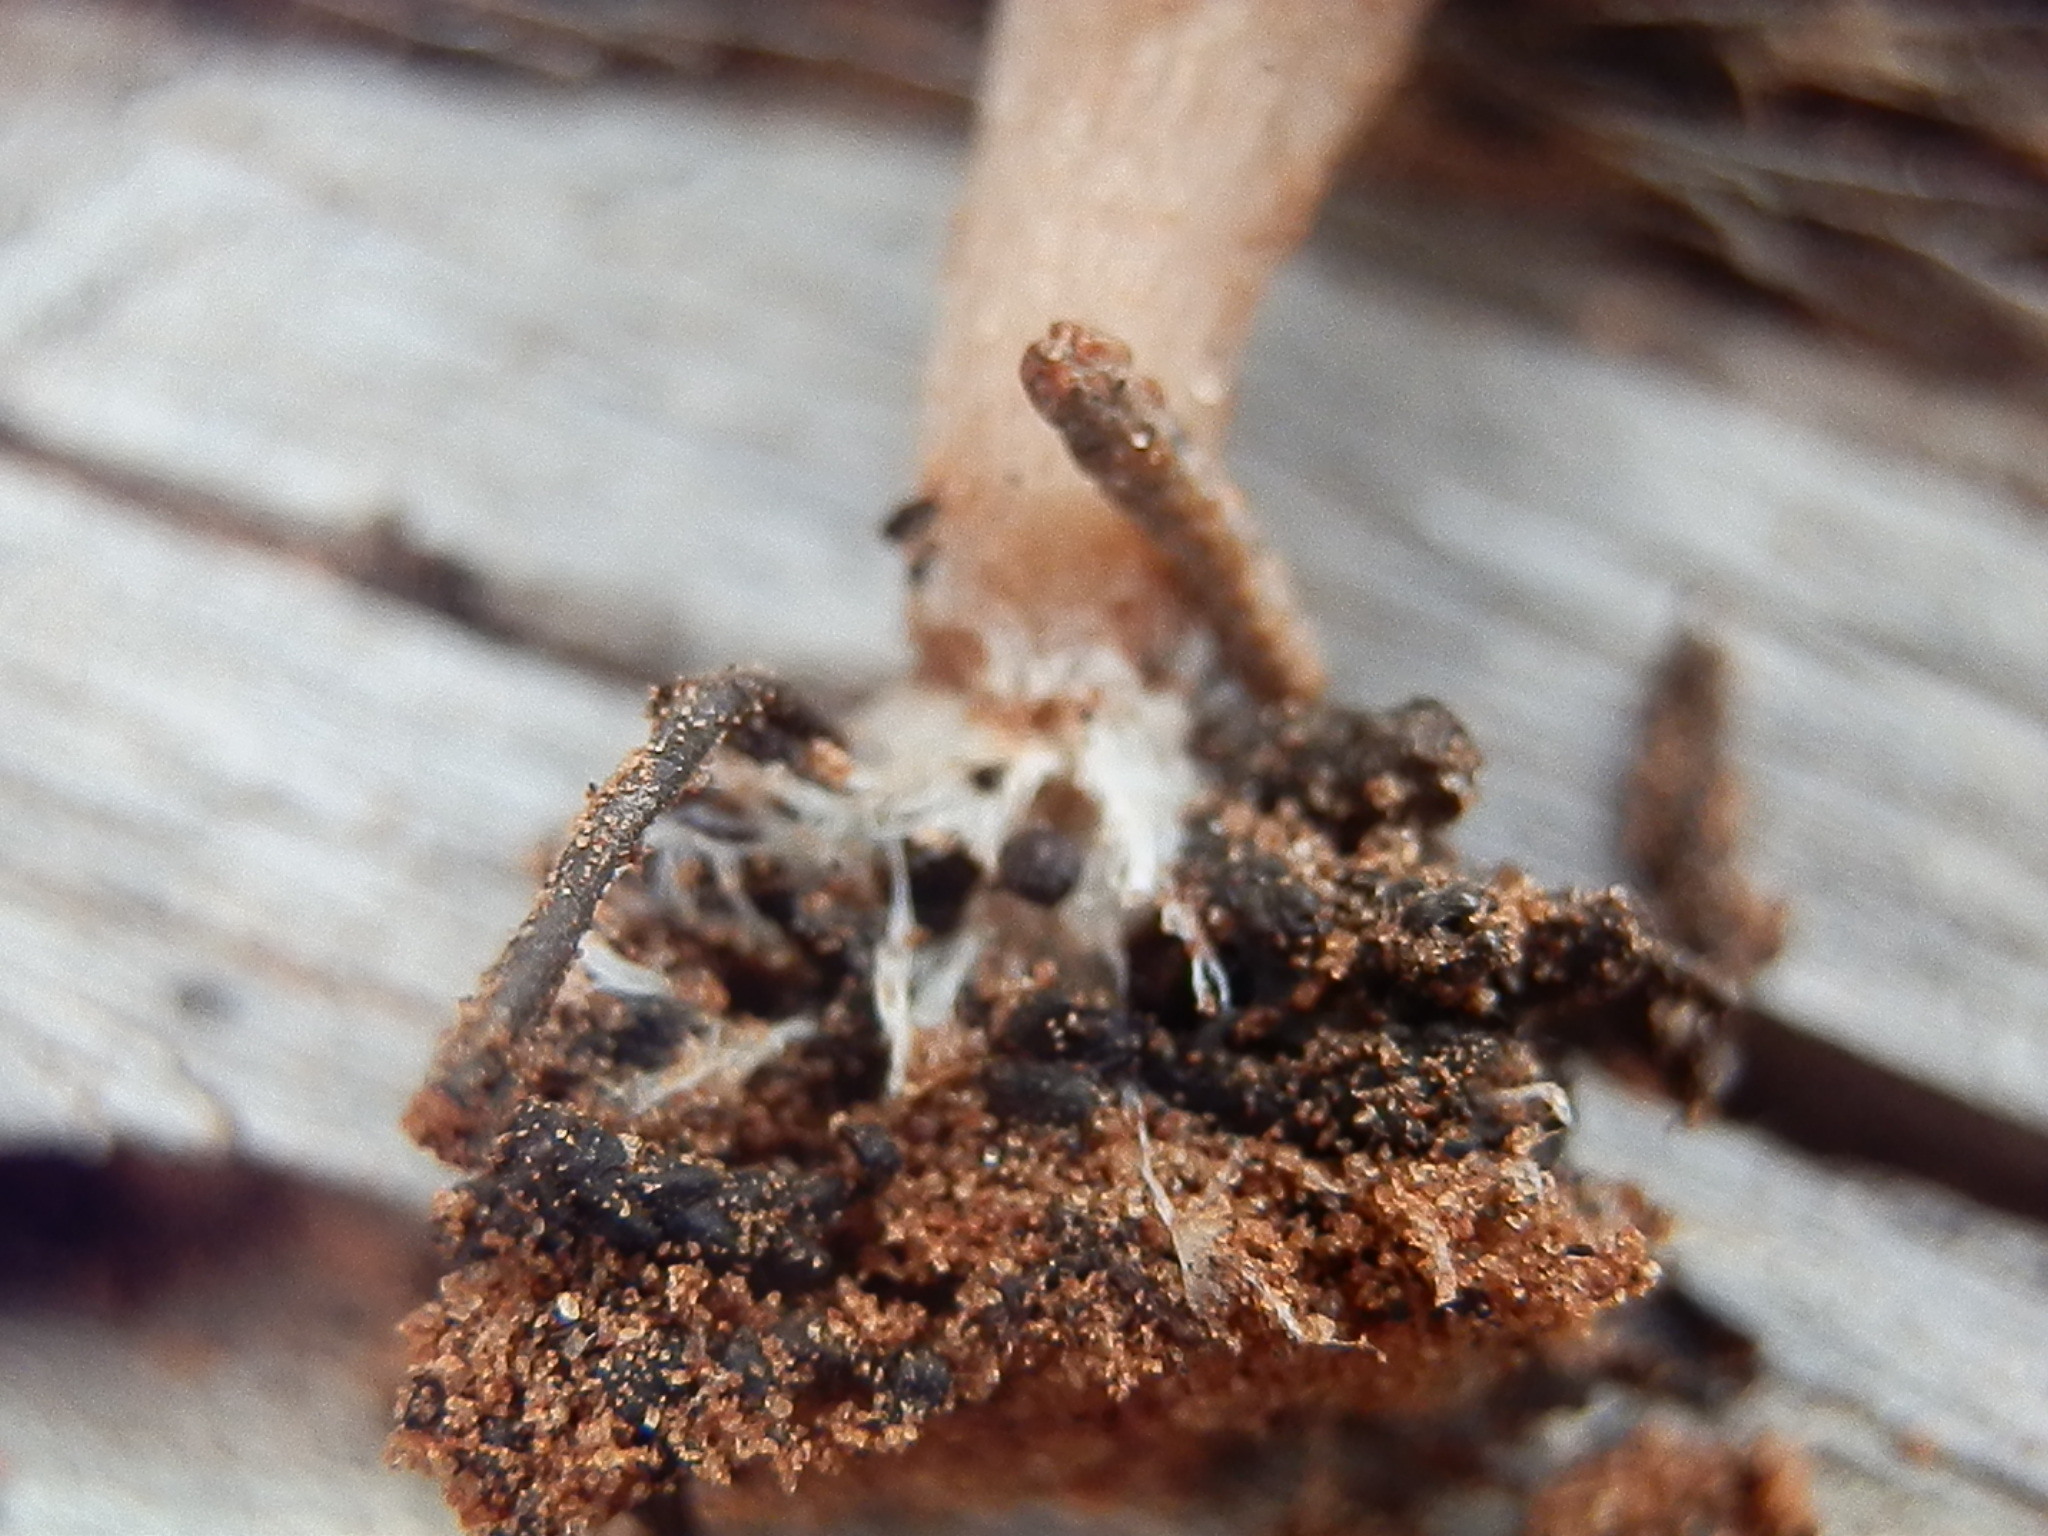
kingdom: Fungi
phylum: Basidiomycota
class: Agaricomycetes
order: Agaricales
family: Tricholomataceae
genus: Ripartites
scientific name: Ripartites tricholoma
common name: Bearded seamine
